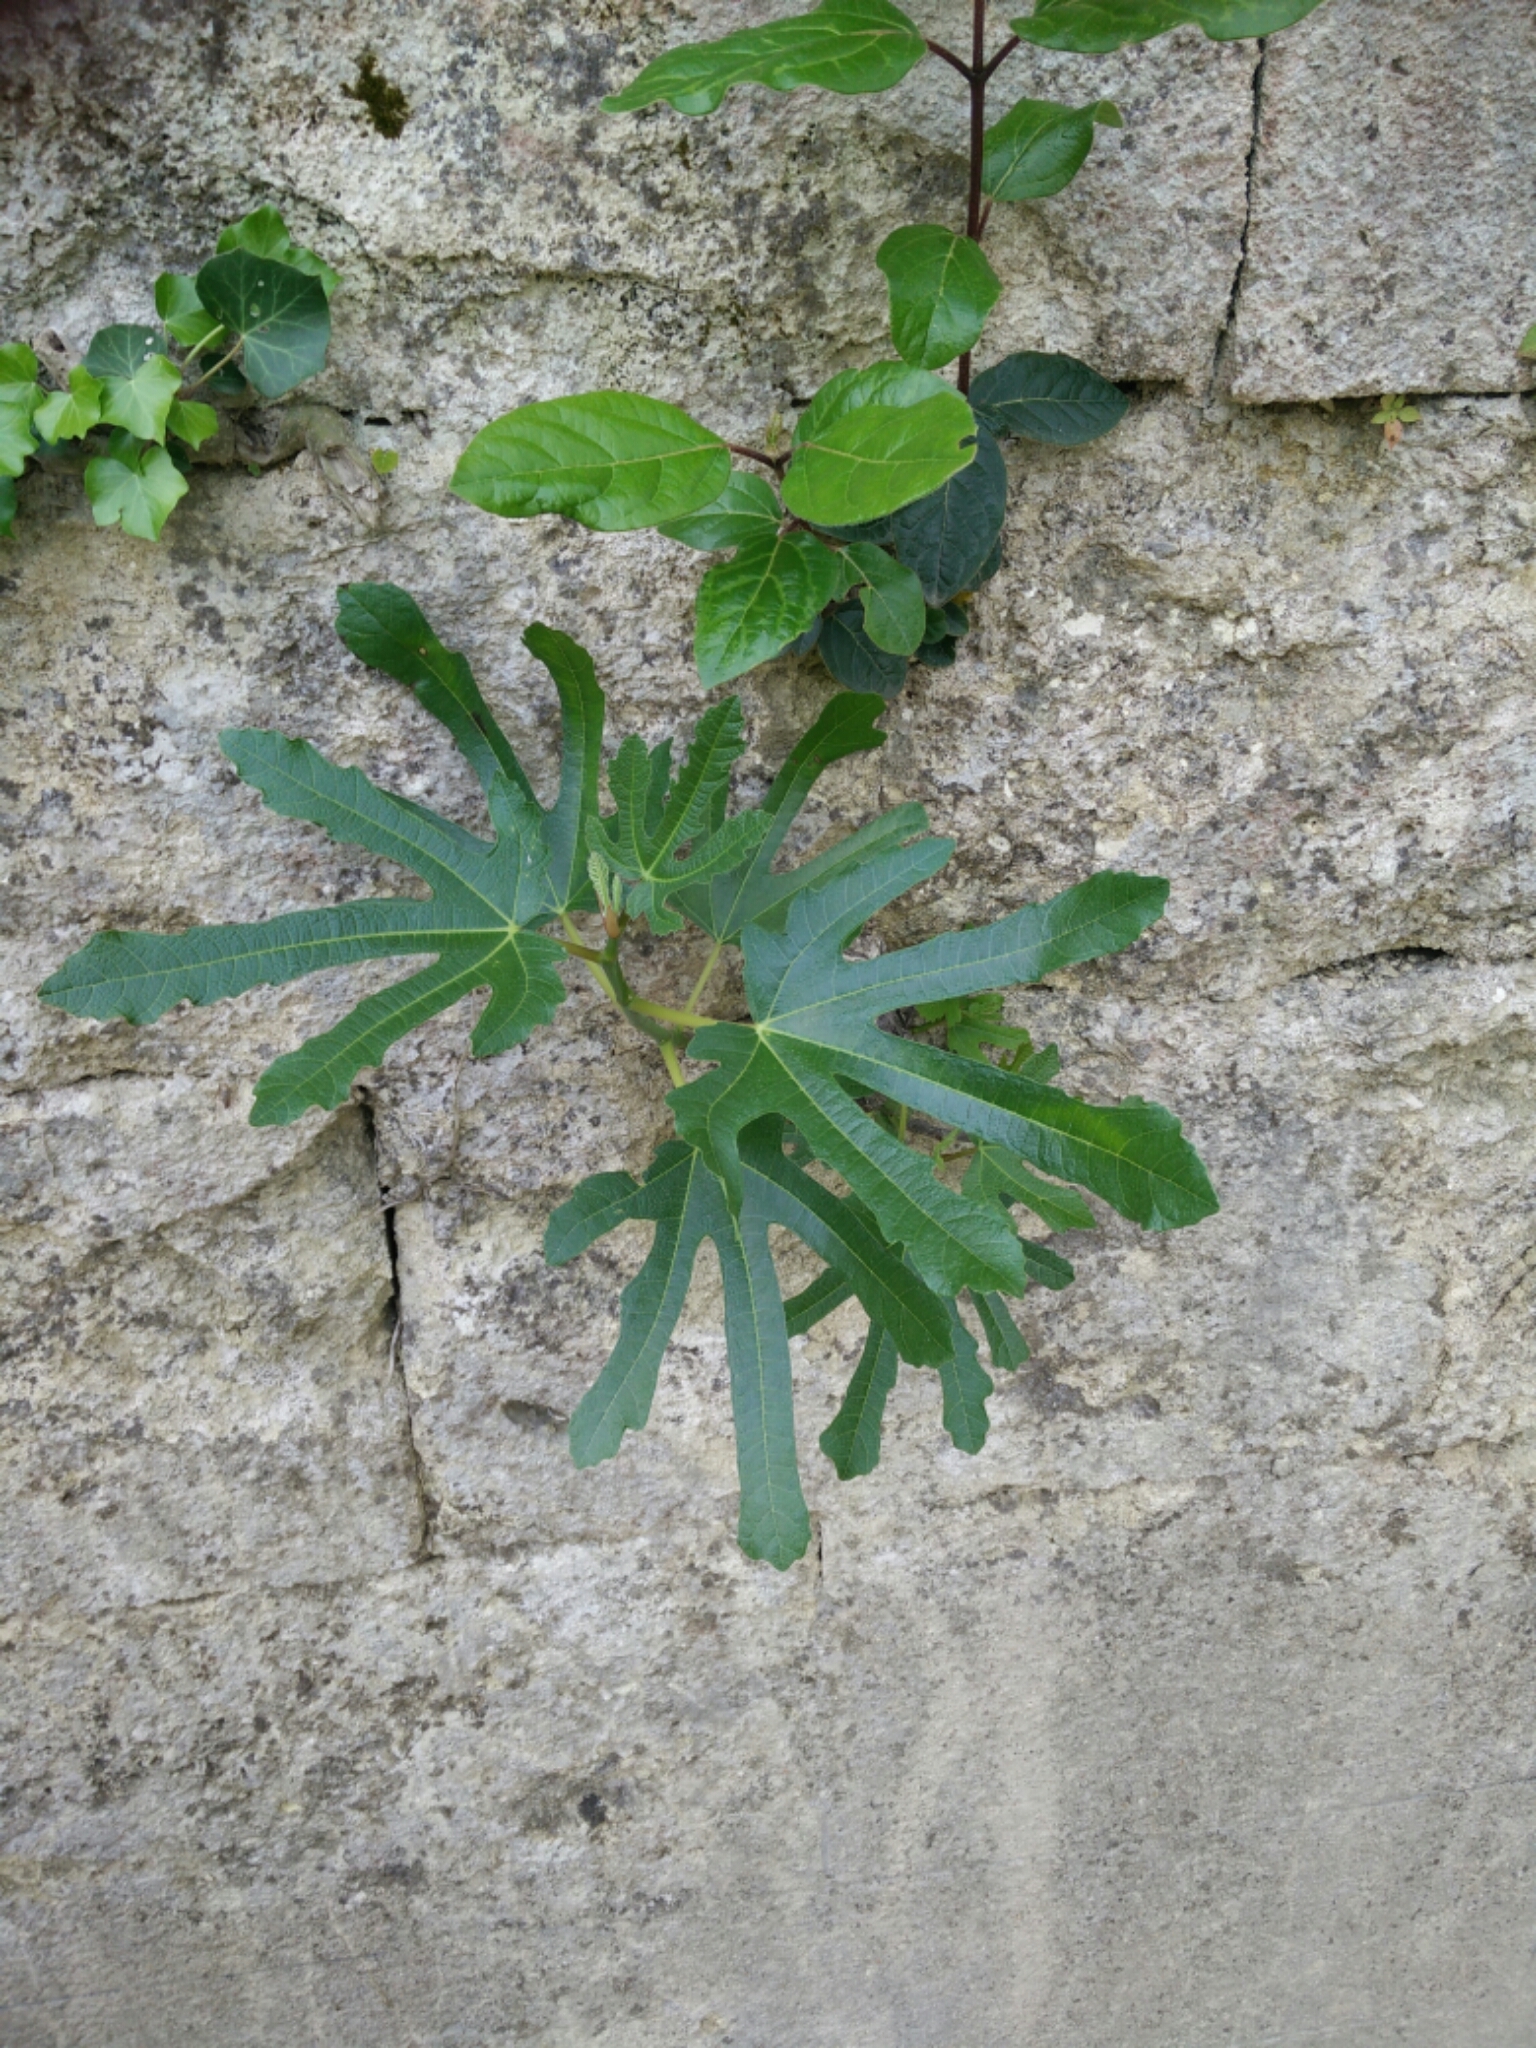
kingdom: Plantae
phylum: Tracheophyta
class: Magnoliopsida
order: Rosales
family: Moraceae
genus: Ficus
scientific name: Ficus carica
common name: Fig
